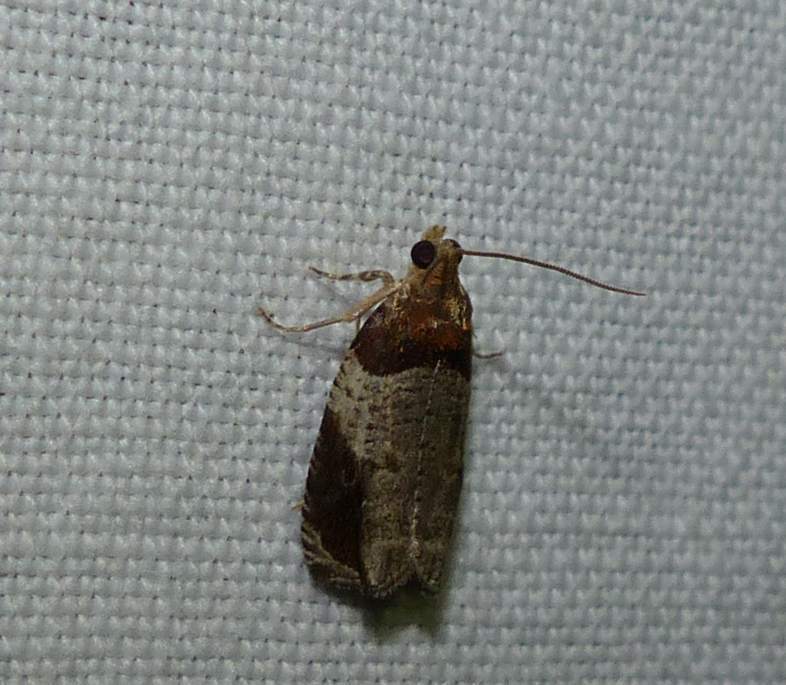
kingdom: Animalia
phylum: Arthropoda
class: Insecta
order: Lepidoptera
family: Tortricidae
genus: Olethreutes
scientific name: Olethreutes ferriferana
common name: Hydrangea leaftier moth
